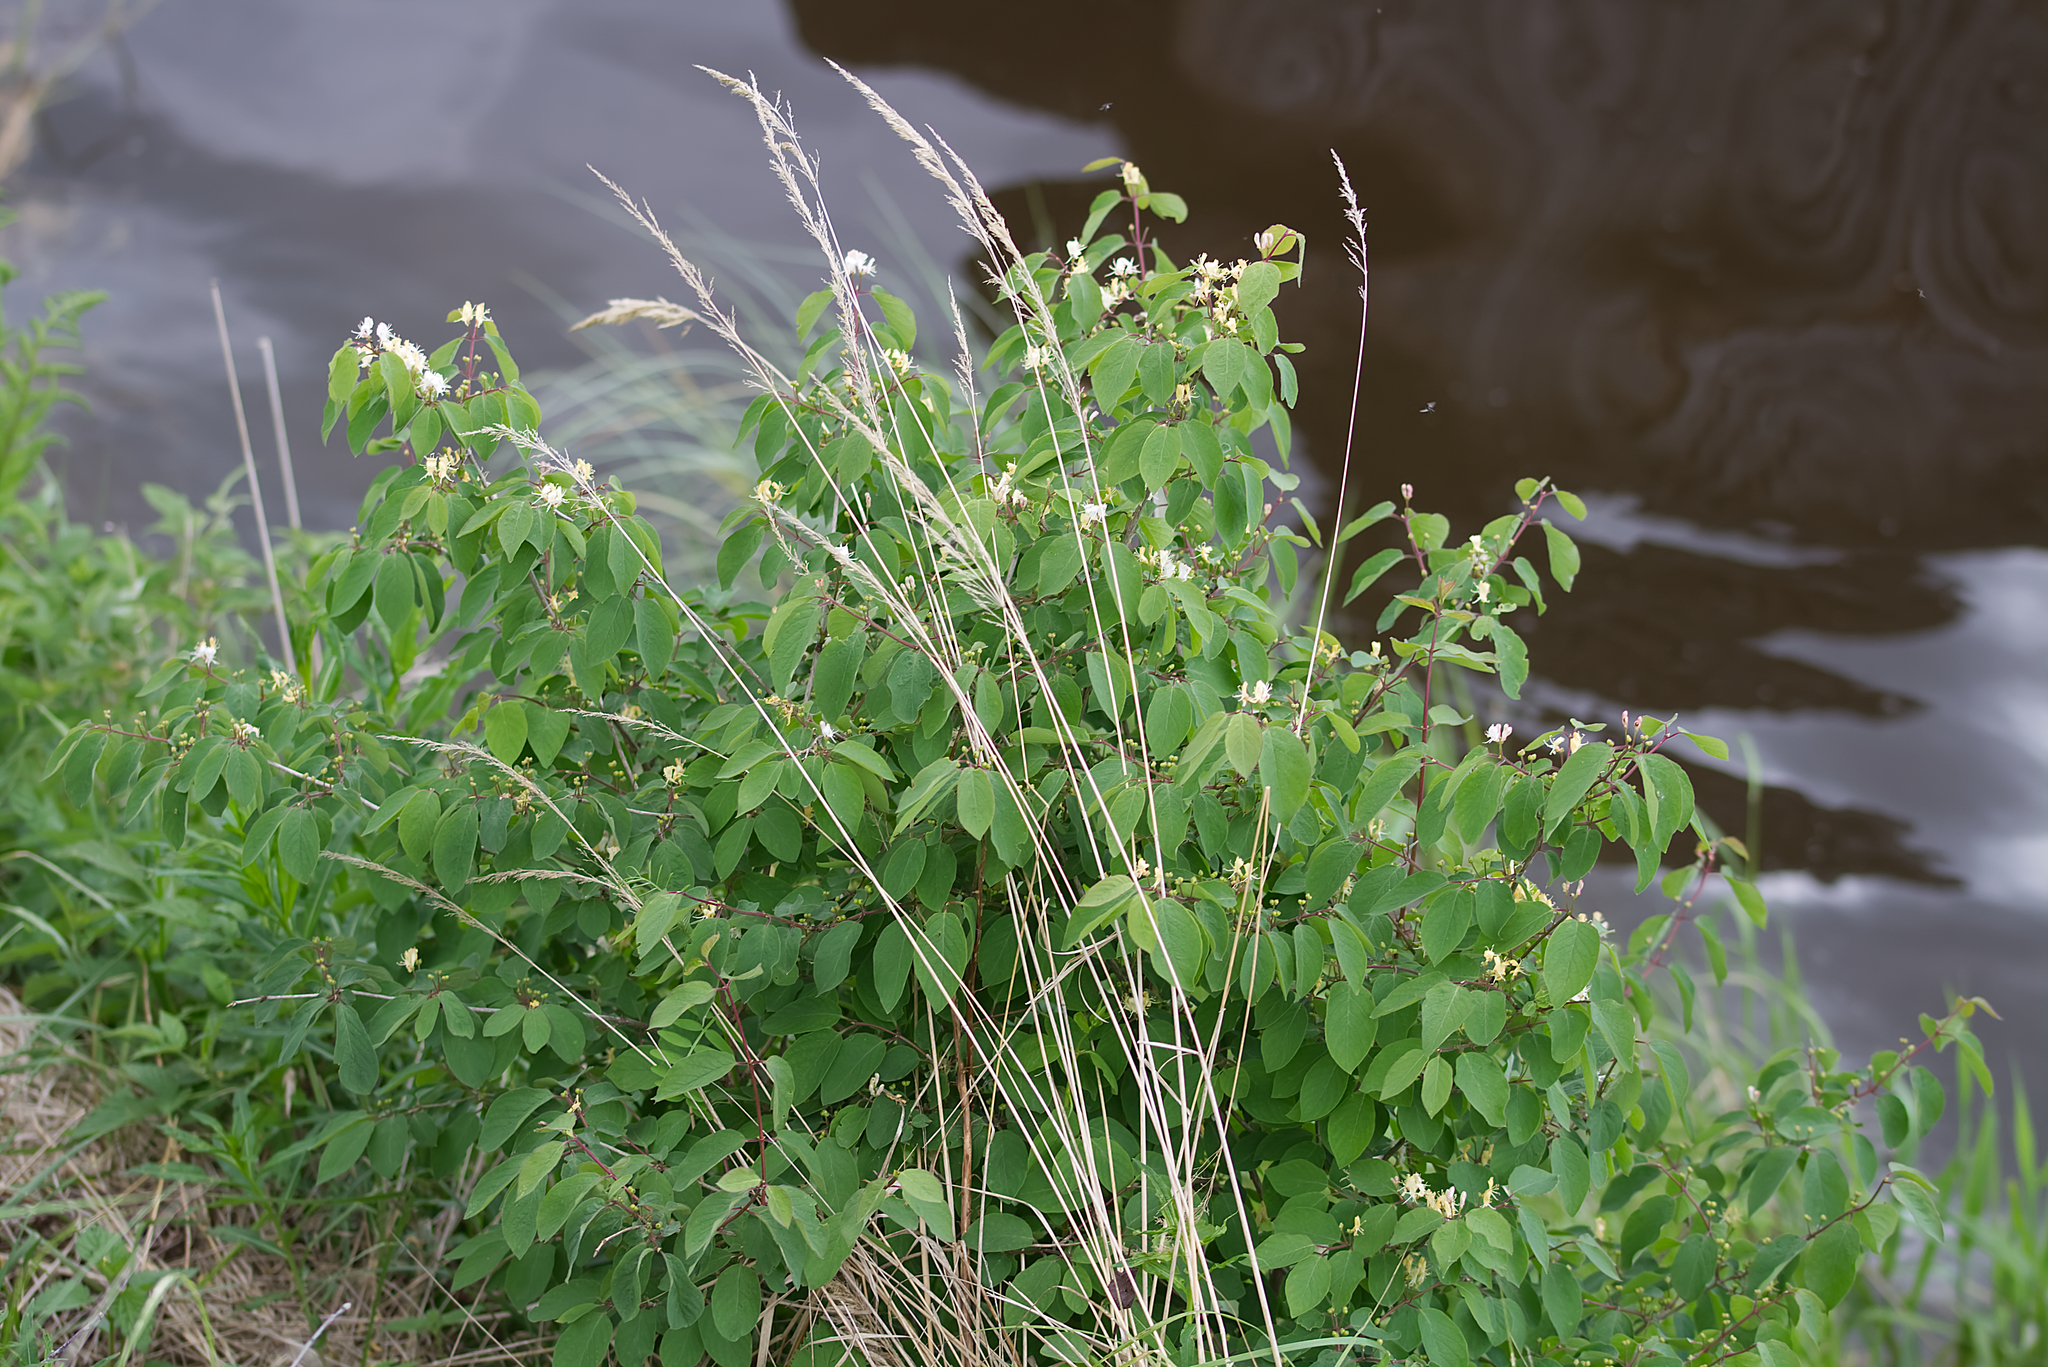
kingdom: Plantae
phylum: Tracheophyta
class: Magnoliopsida
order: Dipsacales
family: Caprifoliaceae
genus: Lonicera
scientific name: Lonicera xylosteum
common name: Fly honeysuckle
